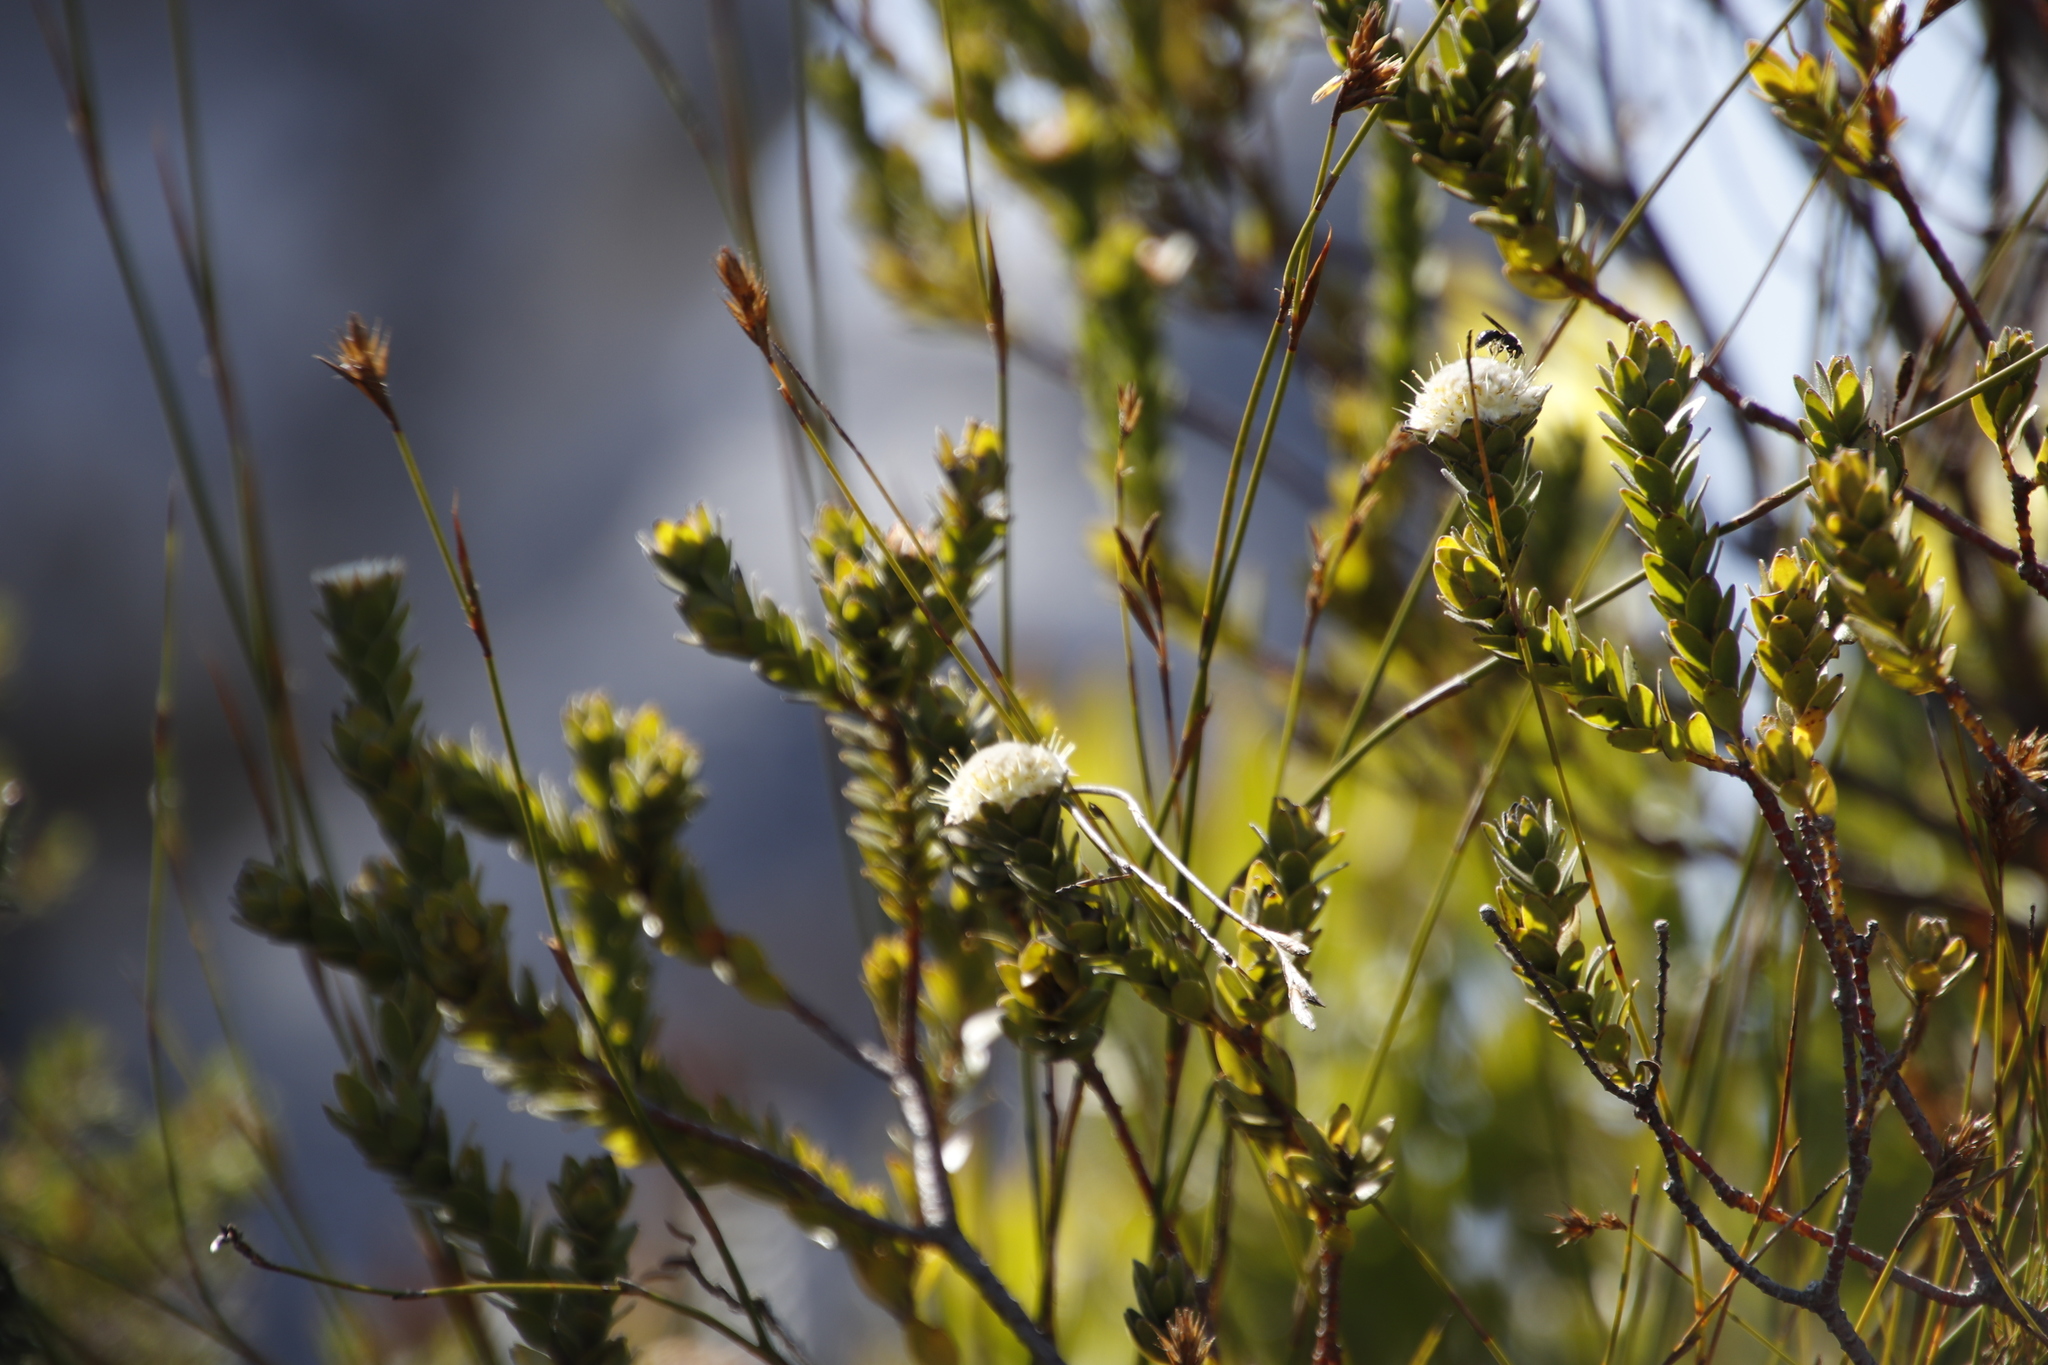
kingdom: Plantae
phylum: Tracheophyta
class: Magnoliopsida
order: Proteales
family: Proteaceae
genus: Diastella
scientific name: Diastella thymelaeoides
